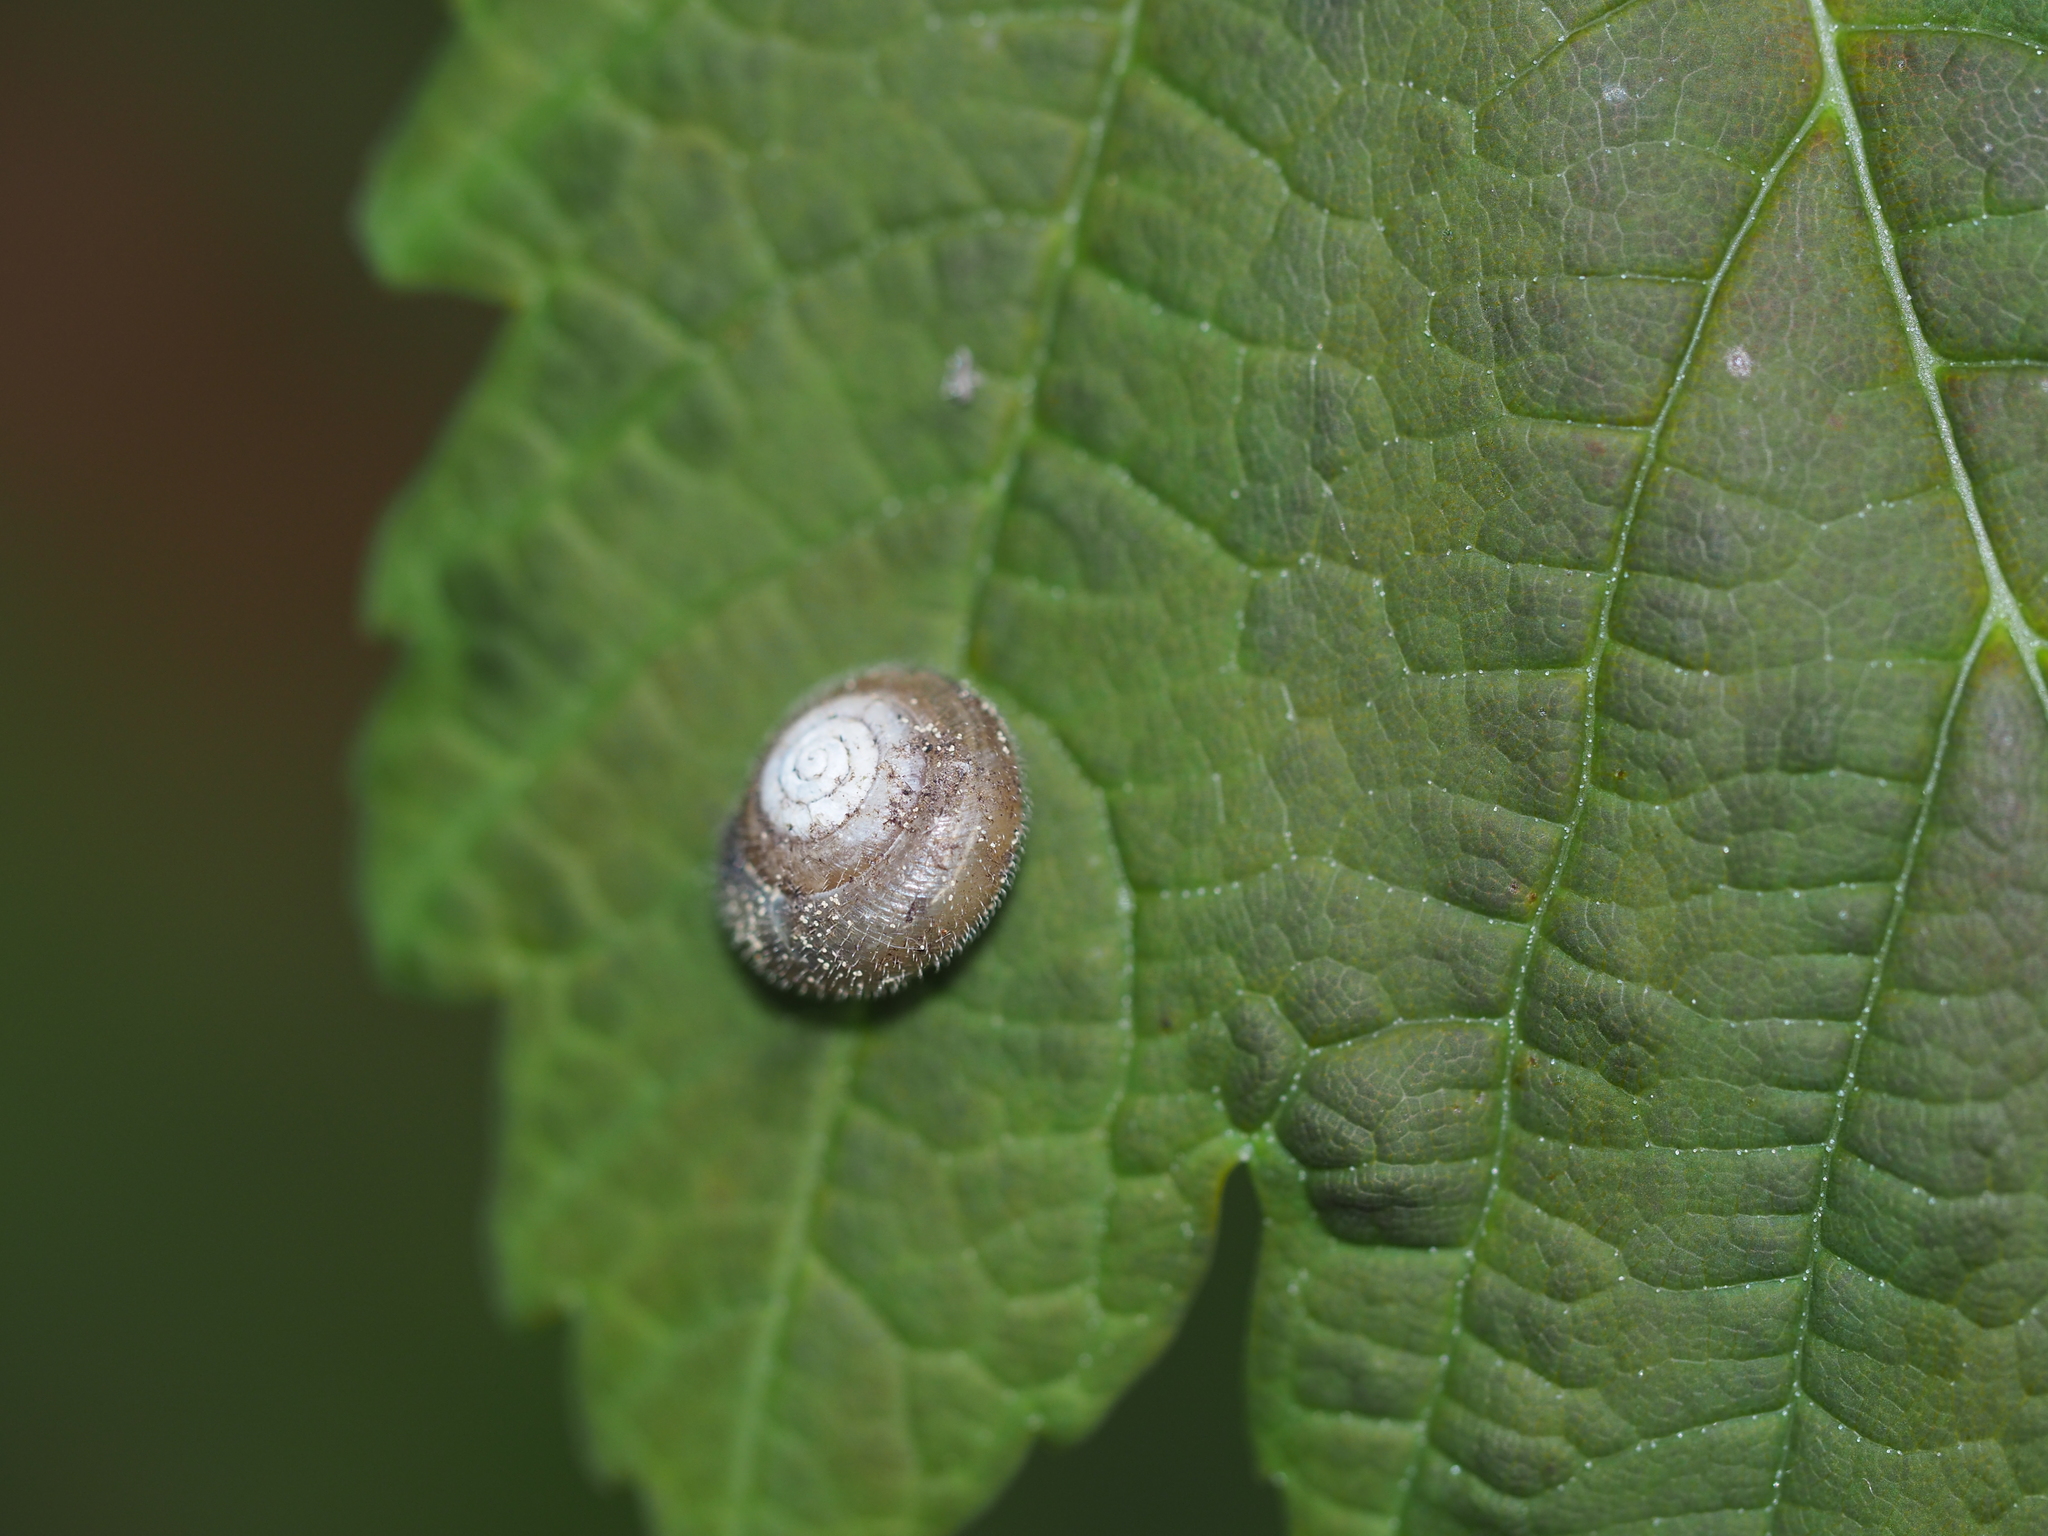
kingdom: Animalia
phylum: Mollusca
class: Gastropoda
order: Stylommatophora
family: Hygromiidae
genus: Trochulus
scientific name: Trochulus hispidus
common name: Hairy snail
